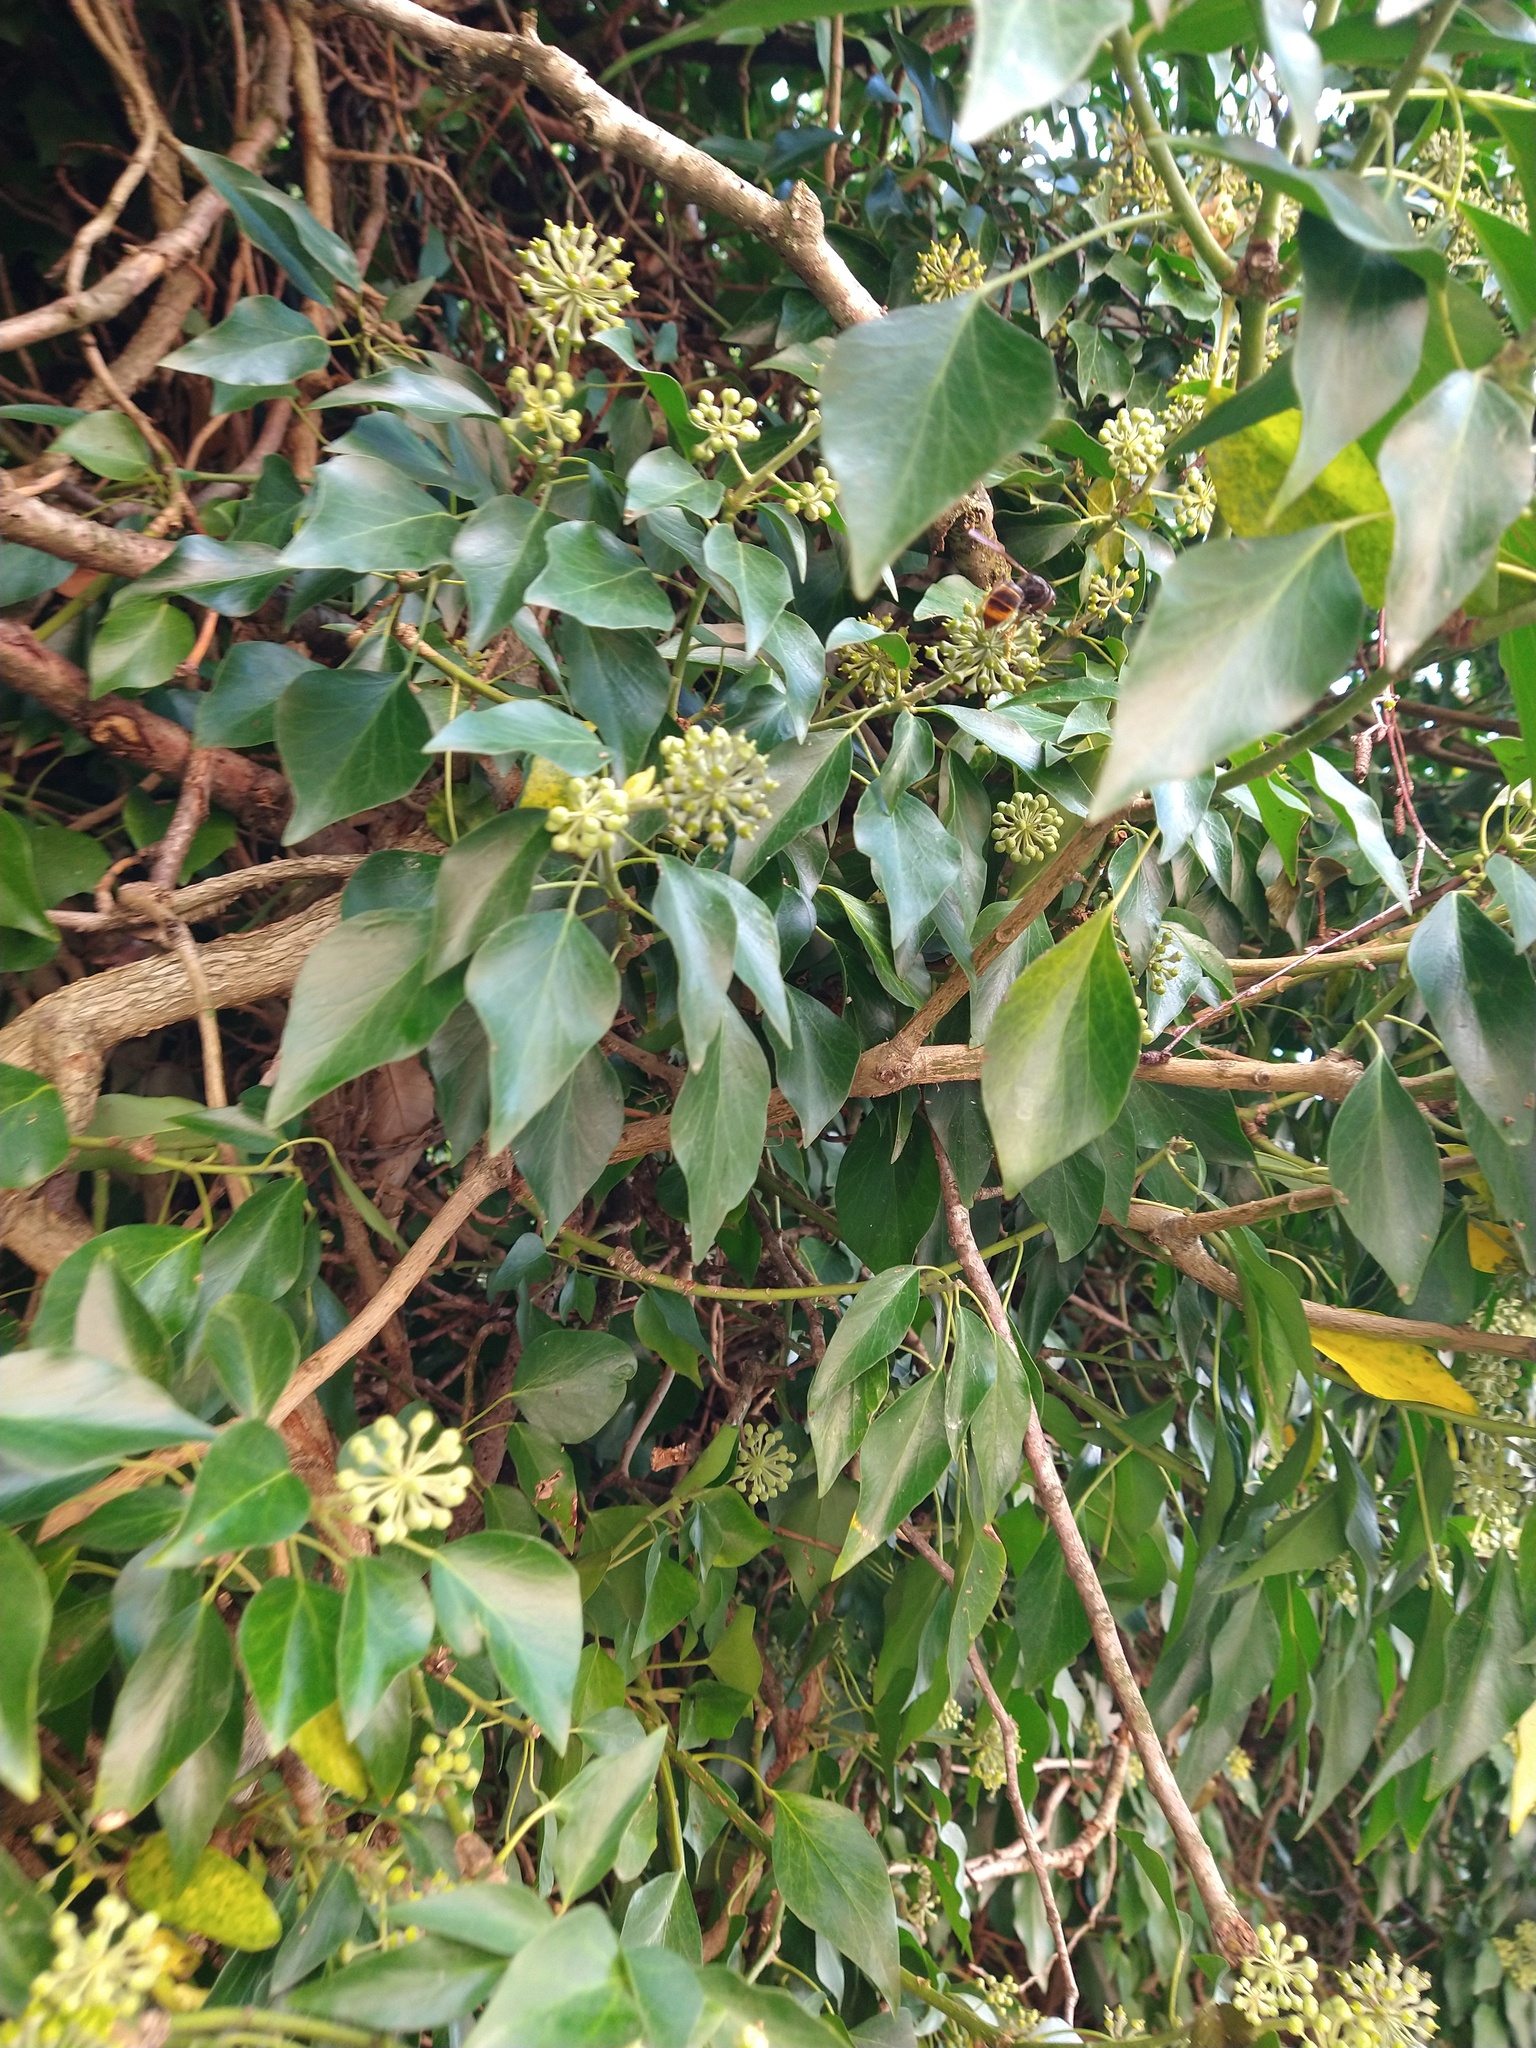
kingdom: Animalia
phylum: Arthropoda
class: Insecta
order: Hymenoptera
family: Vespidae
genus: Vespa
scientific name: Vespa velutina
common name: Asian hornet
